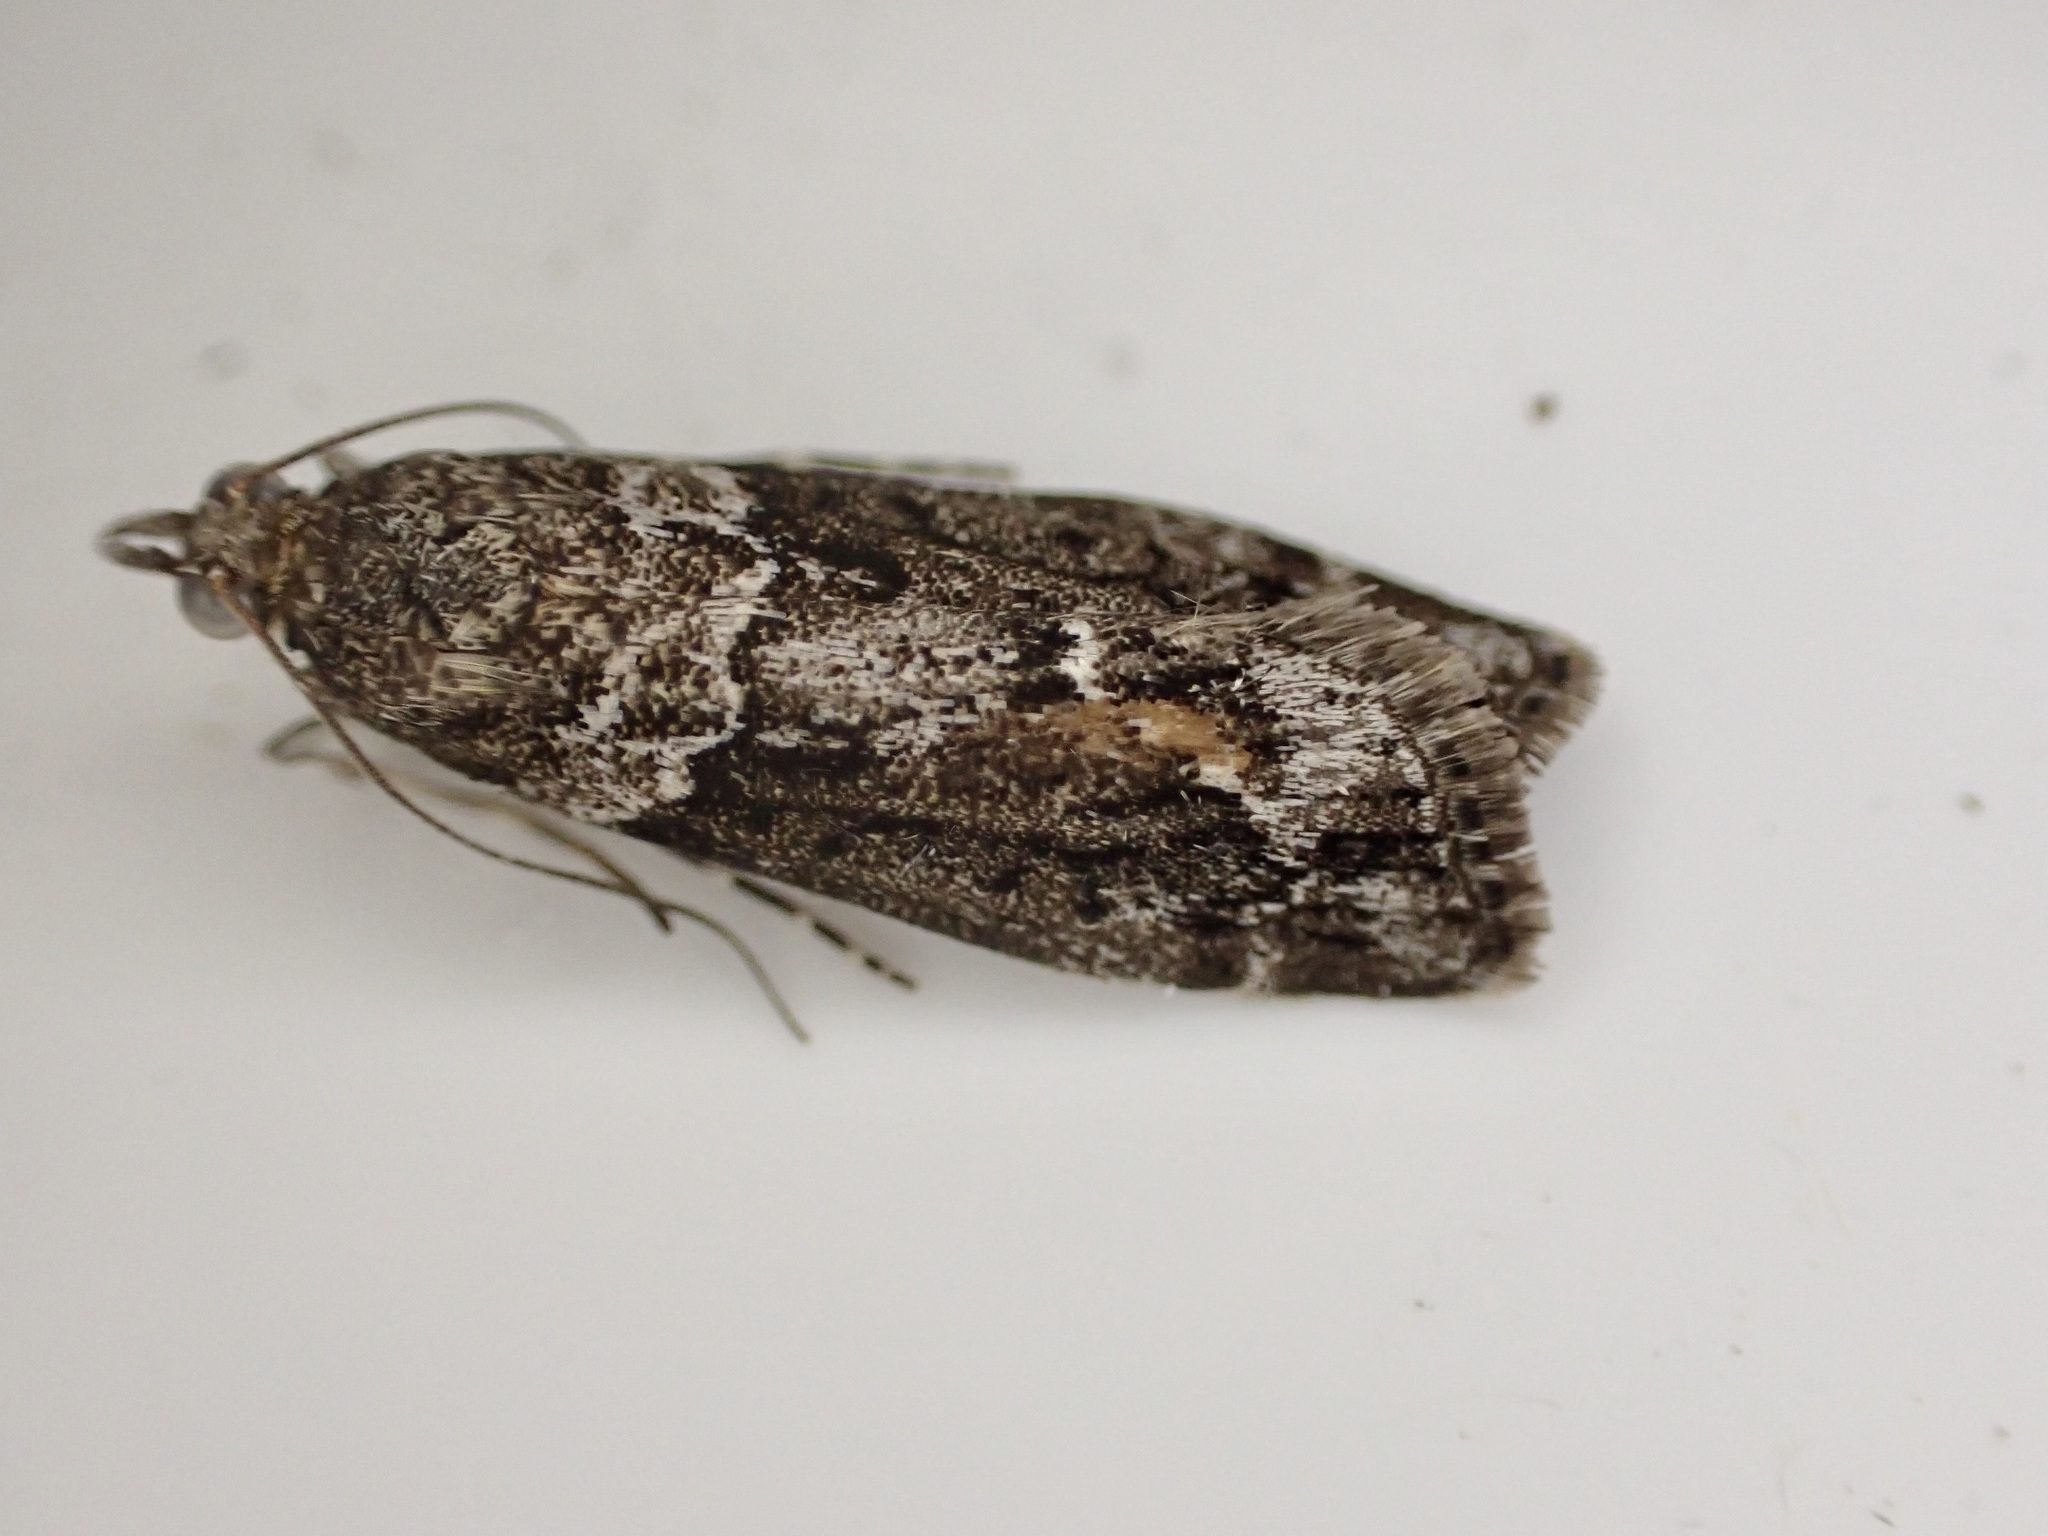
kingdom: Animalia
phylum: Arthropoda
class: Insecta
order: Lepidoptera
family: Crambidae
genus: Eudonia
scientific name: Eudonia submarginalis
